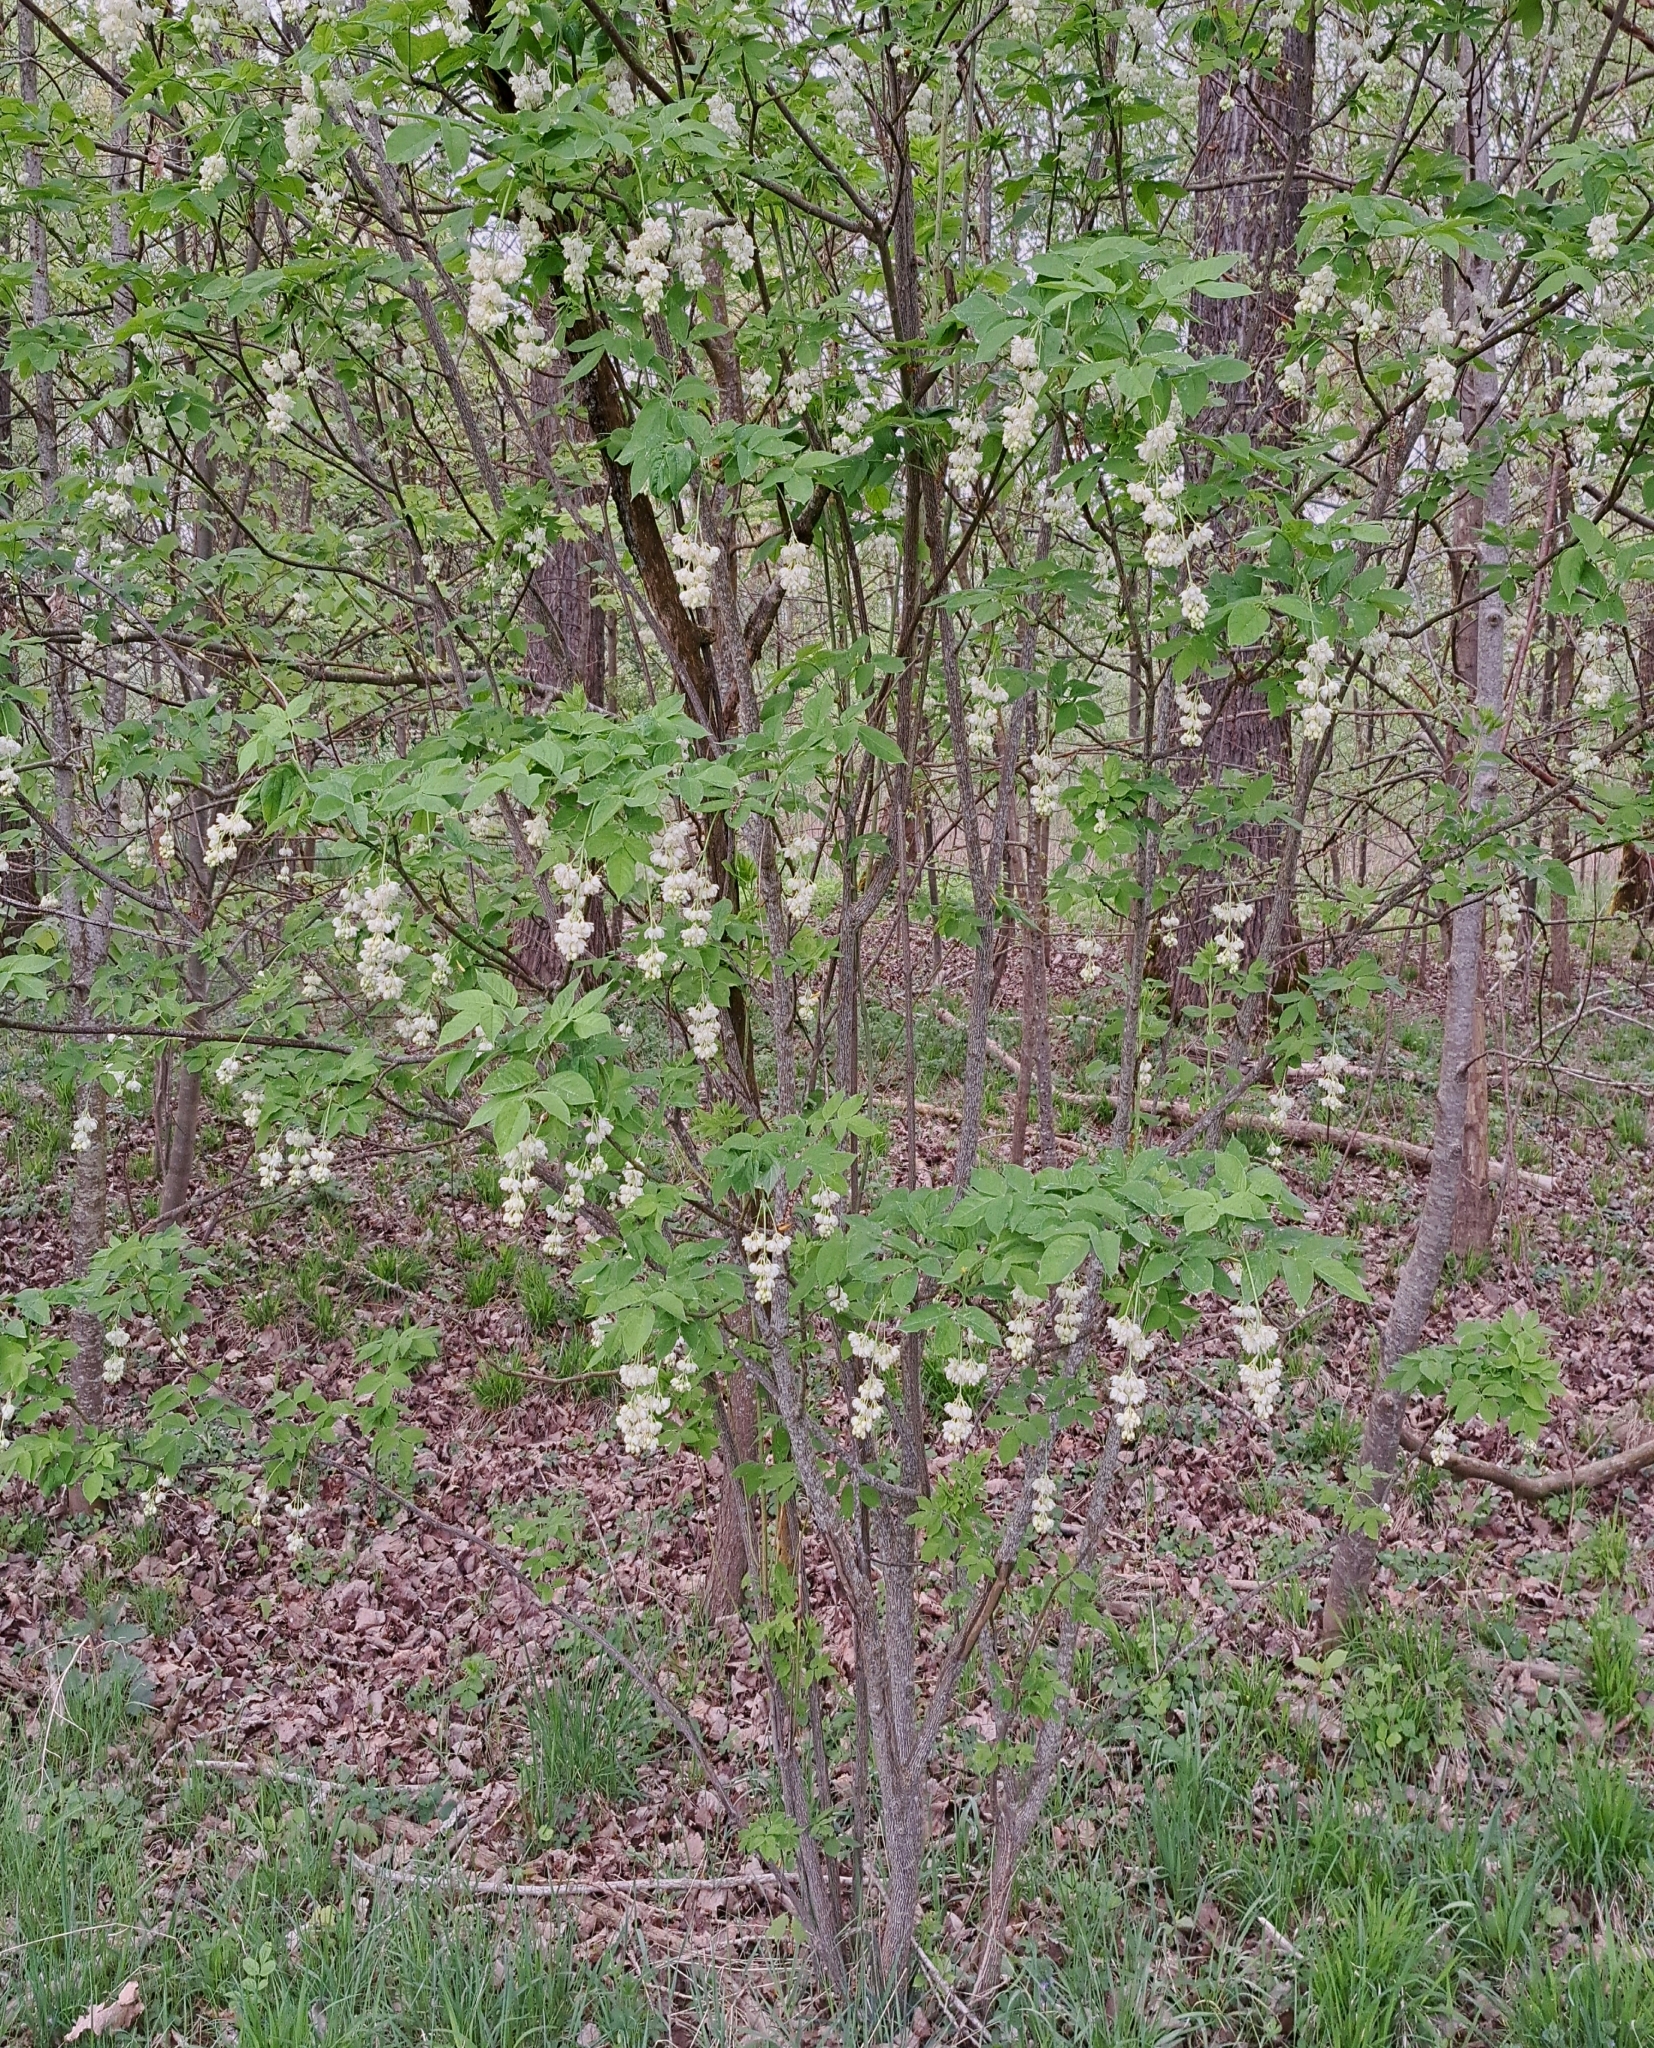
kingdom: Plantae
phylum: Tracheophyta
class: Magnoliopsida
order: Crossosomatales
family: Staphyleaceae
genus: Staphylea
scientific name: Staphylea pinnata
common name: Bladdernut
